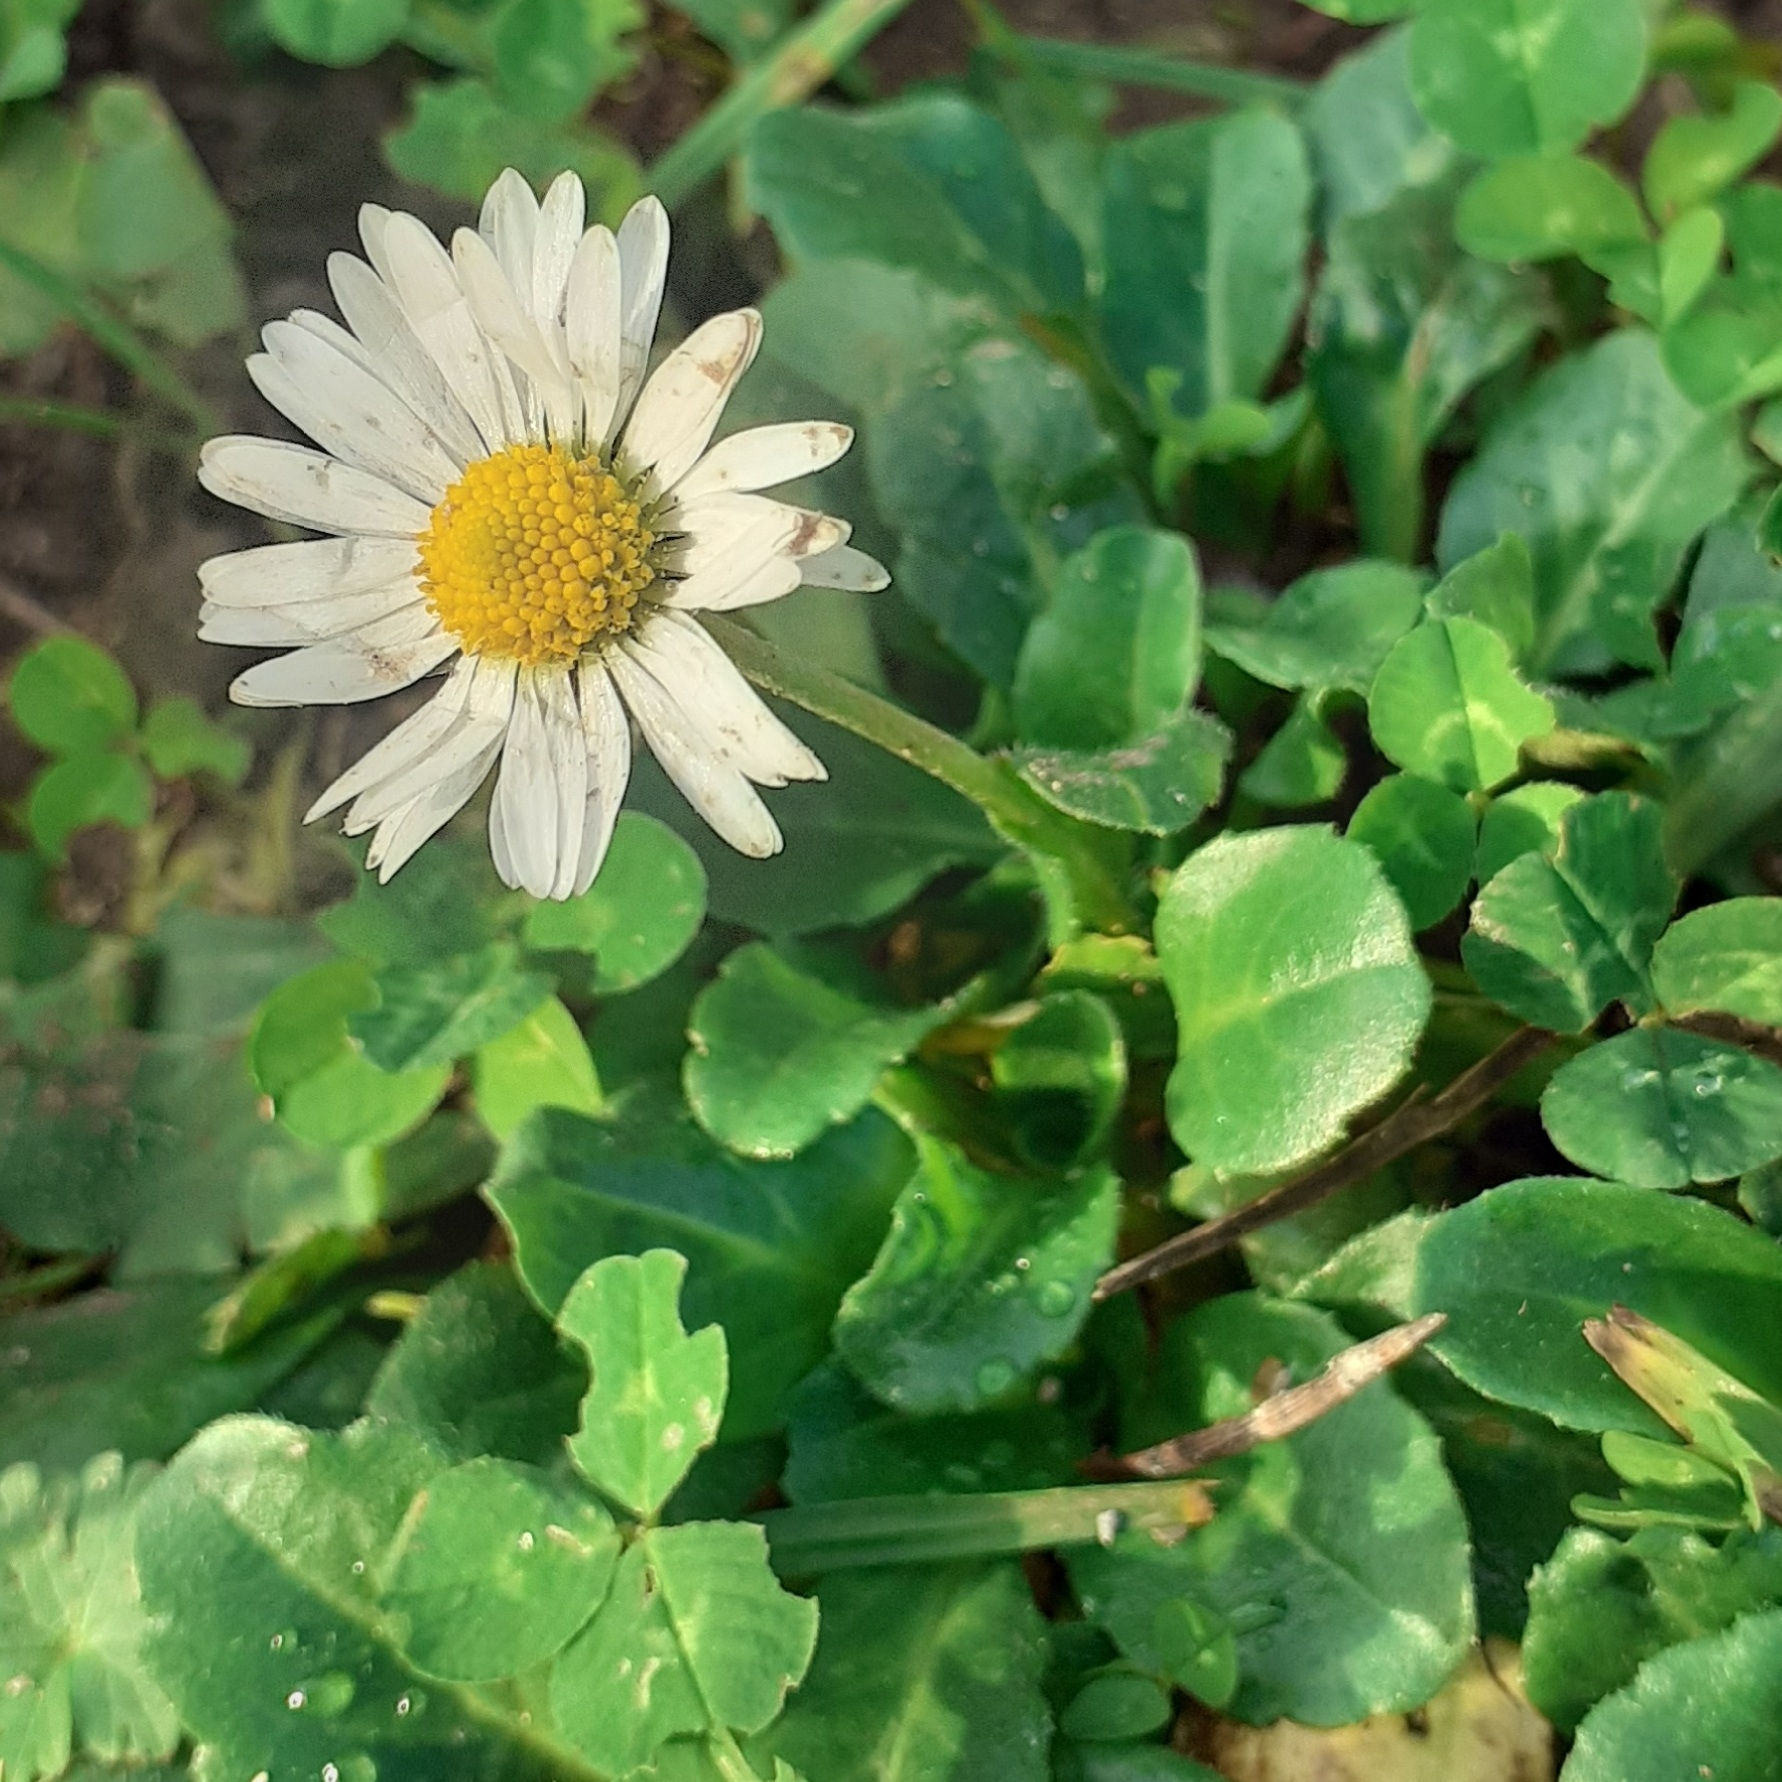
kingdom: Plantae
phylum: Tracheophyta
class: Magnoliopsida
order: Asterales
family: Asteraceae
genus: Bellis
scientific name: Bellis perennis
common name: Lawndaisy
